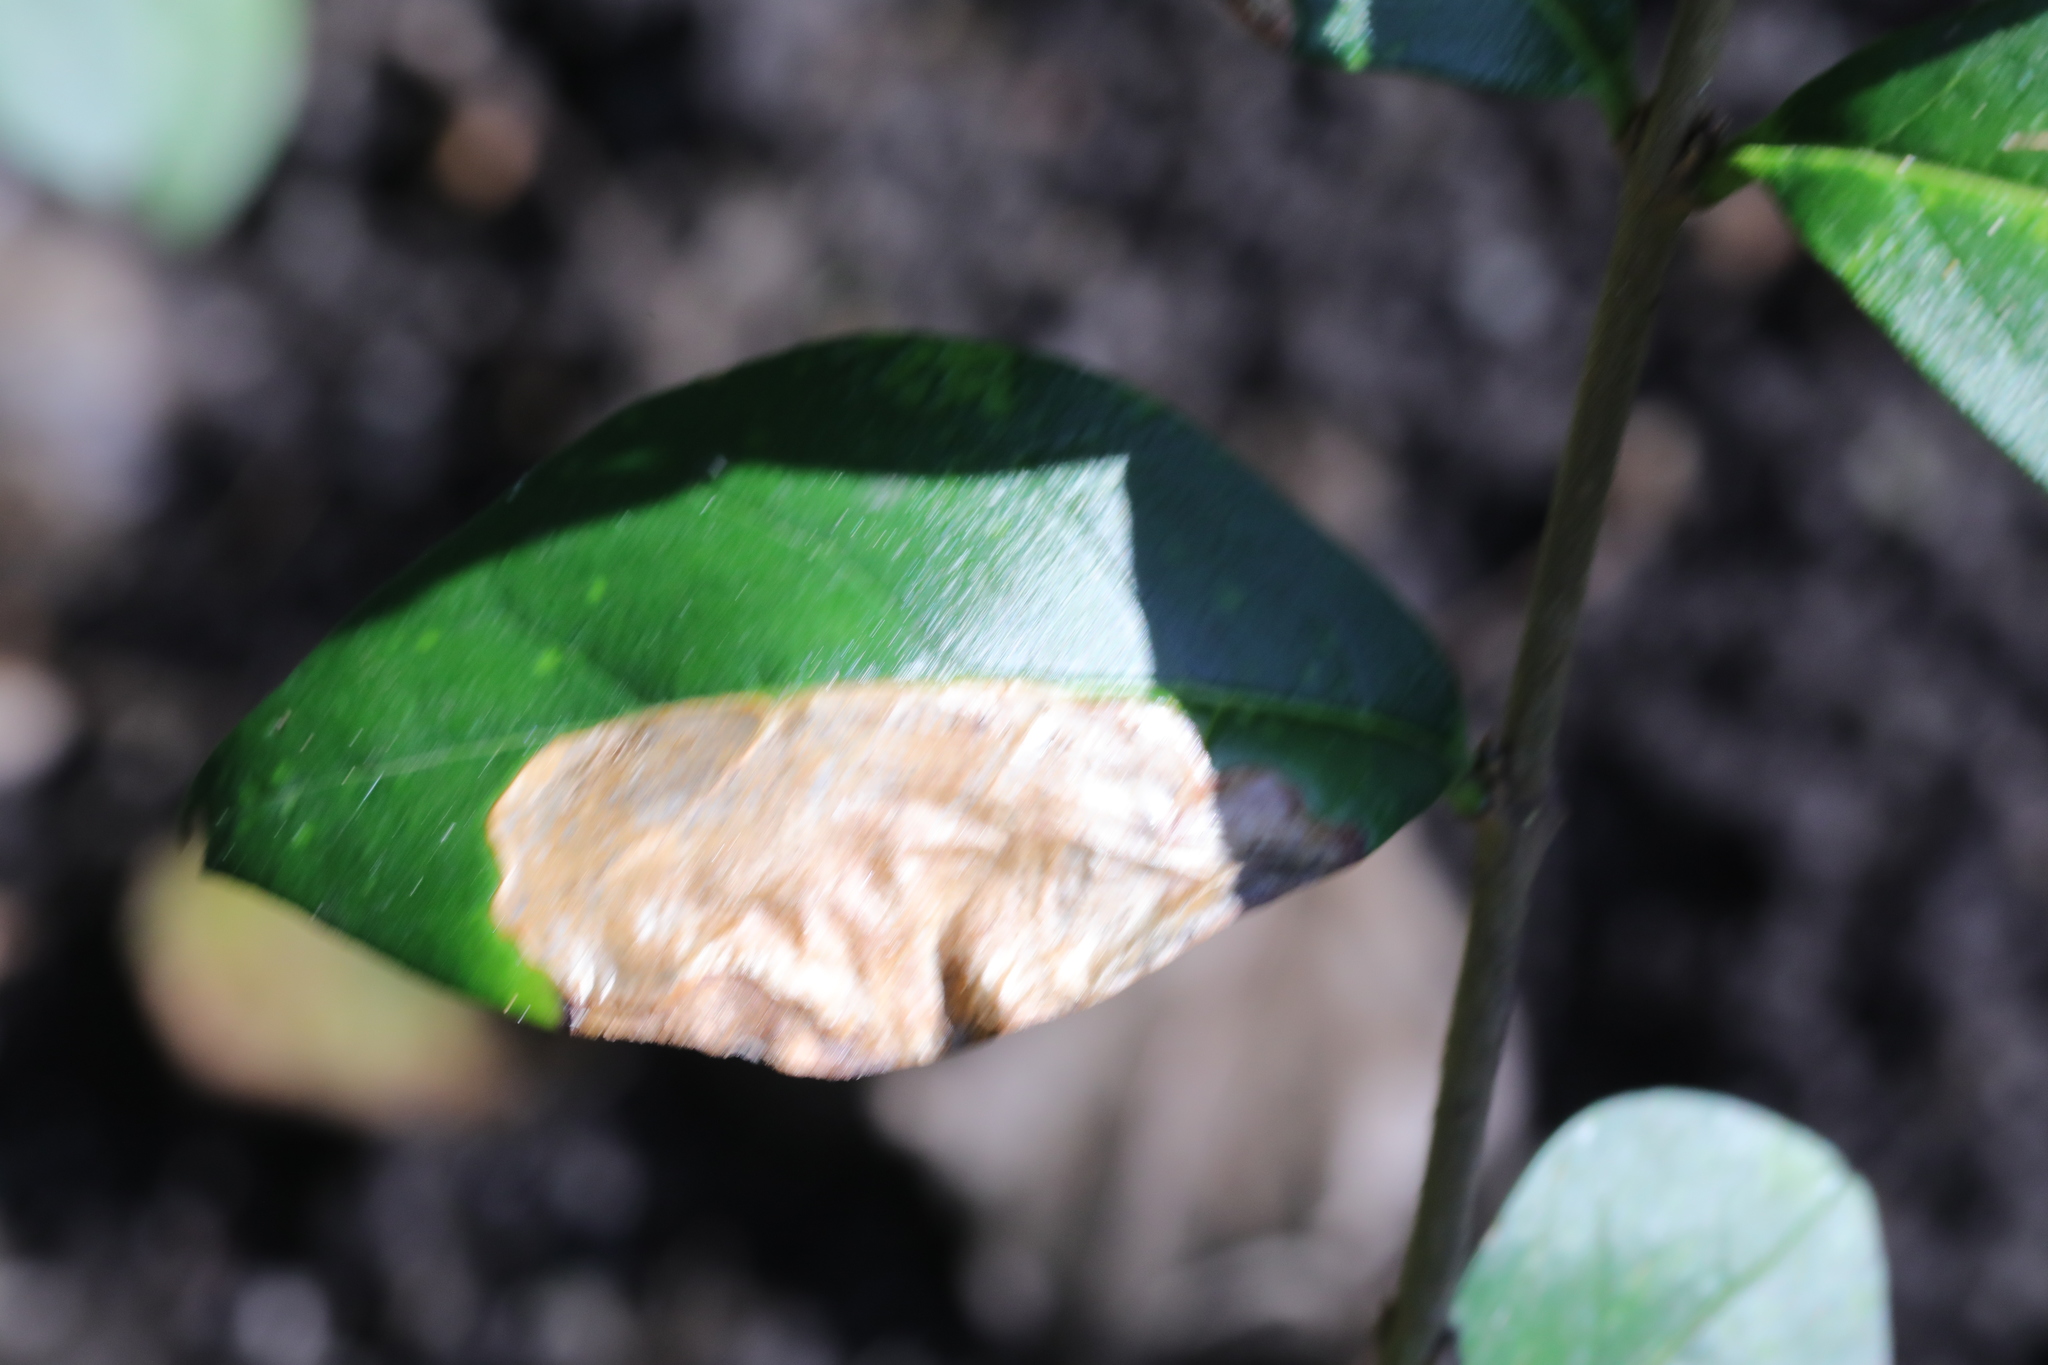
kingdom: Animalia
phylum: Arthropoda
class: Insecta
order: Lepidoptera
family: Gracillariidae
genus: Gracillaria
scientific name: Gracillaria syringella
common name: Common slender
